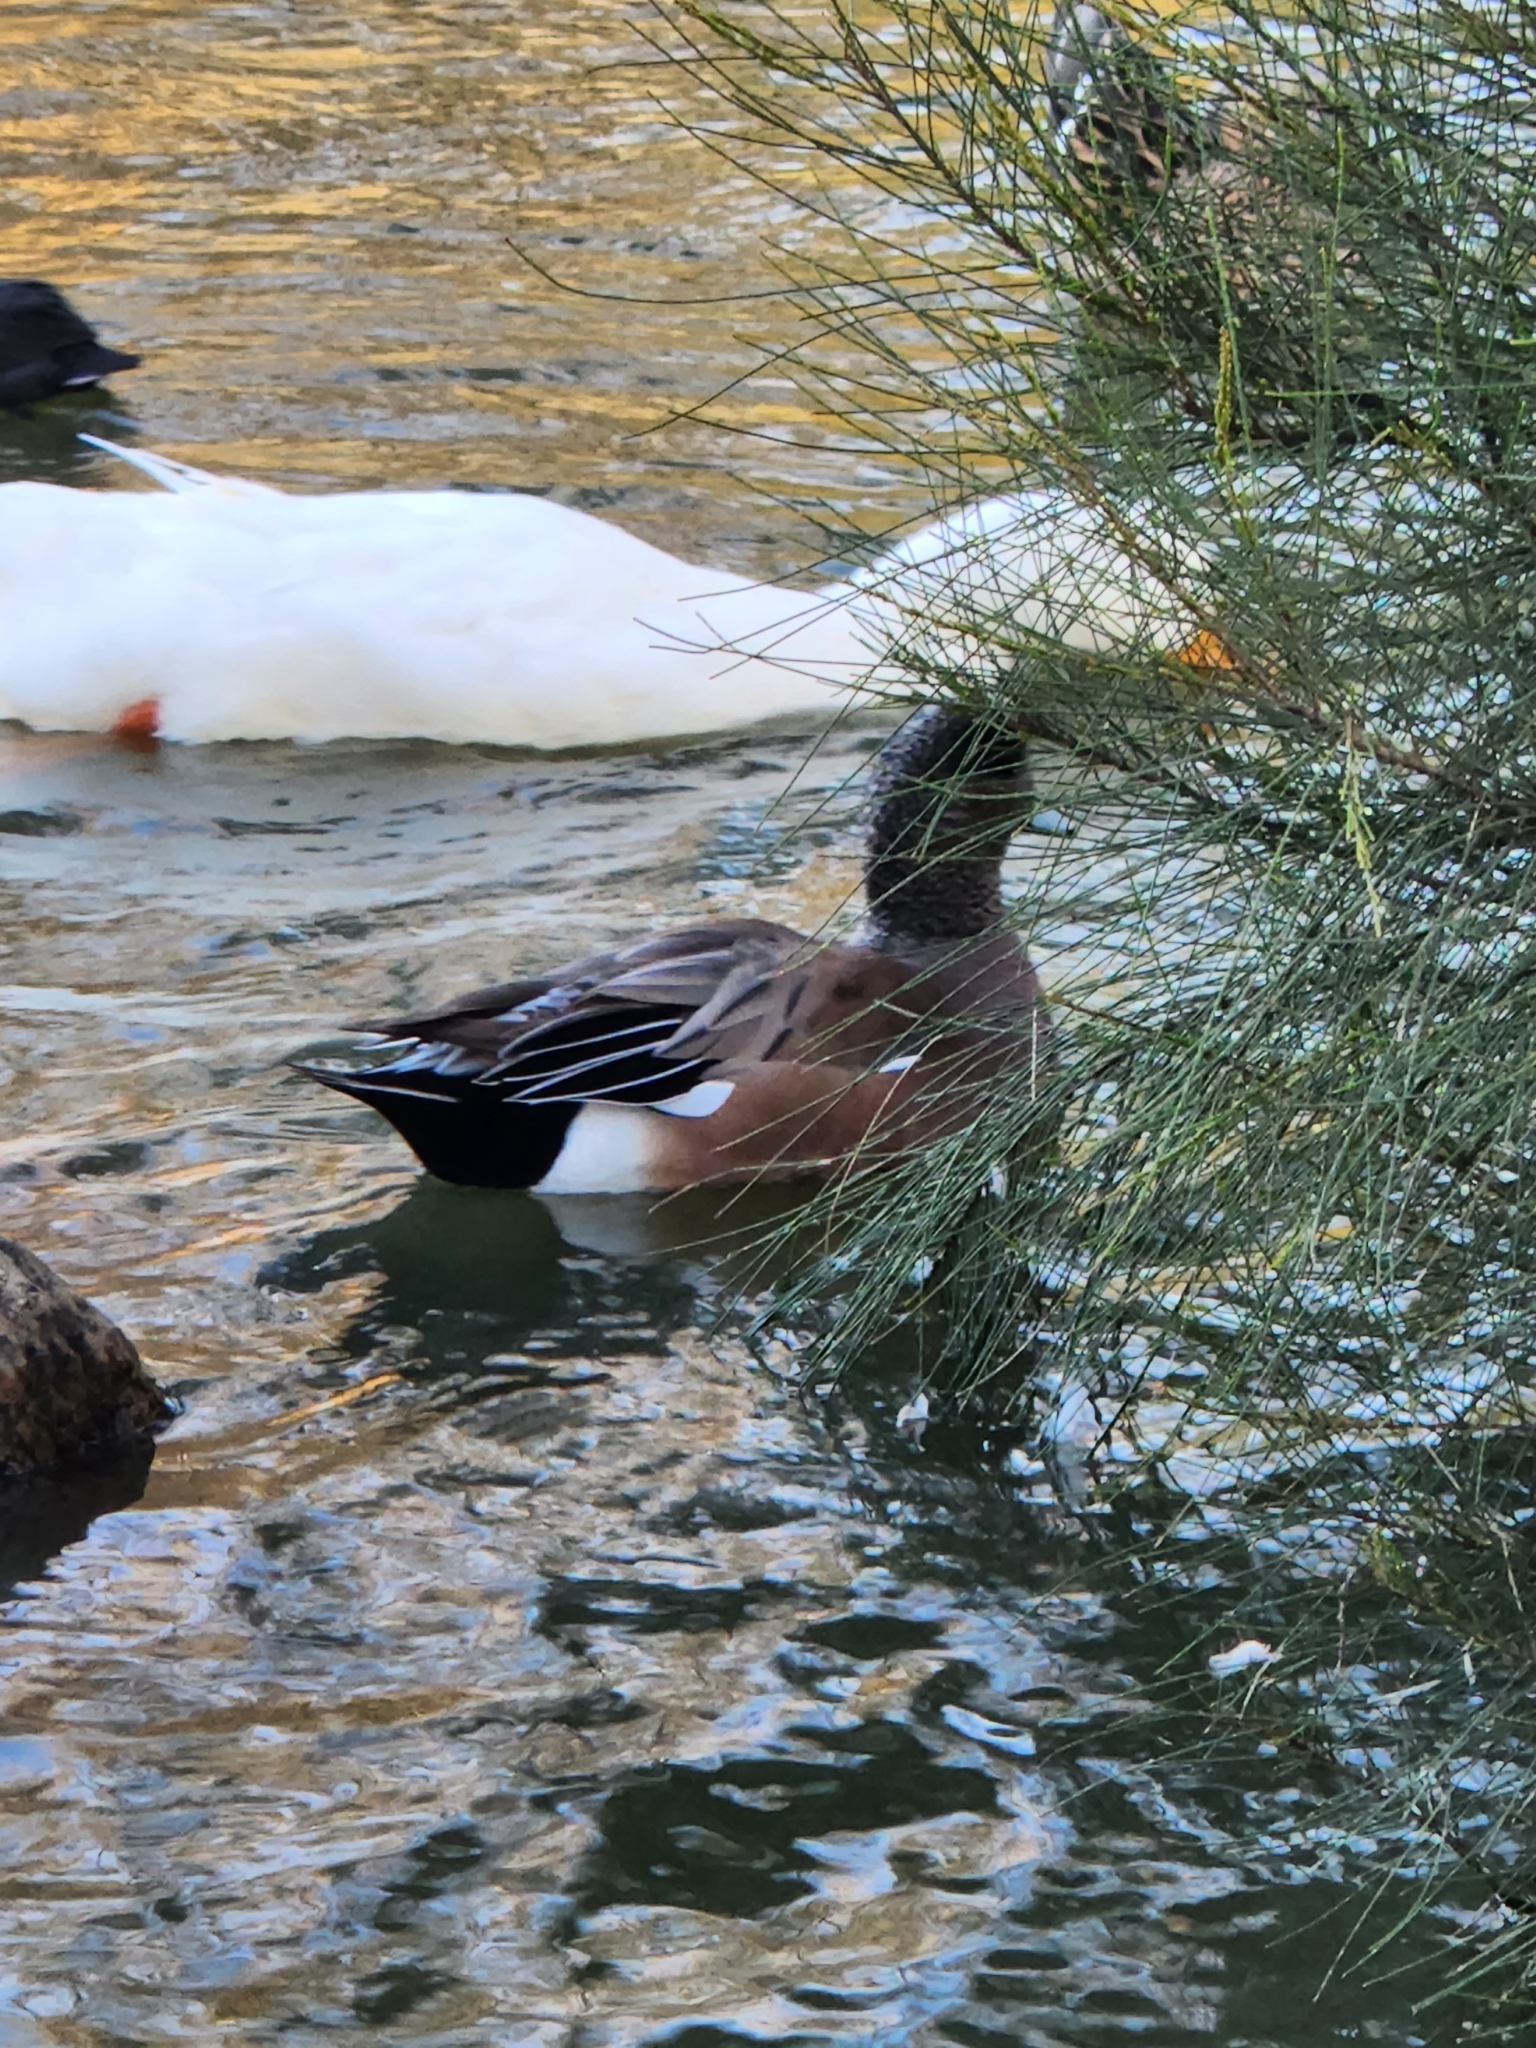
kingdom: Animalia
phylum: Chordata
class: Aves
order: Anseriformes
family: Anatidae
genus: Mareca
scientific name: Mareca americana
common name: American wigeon
